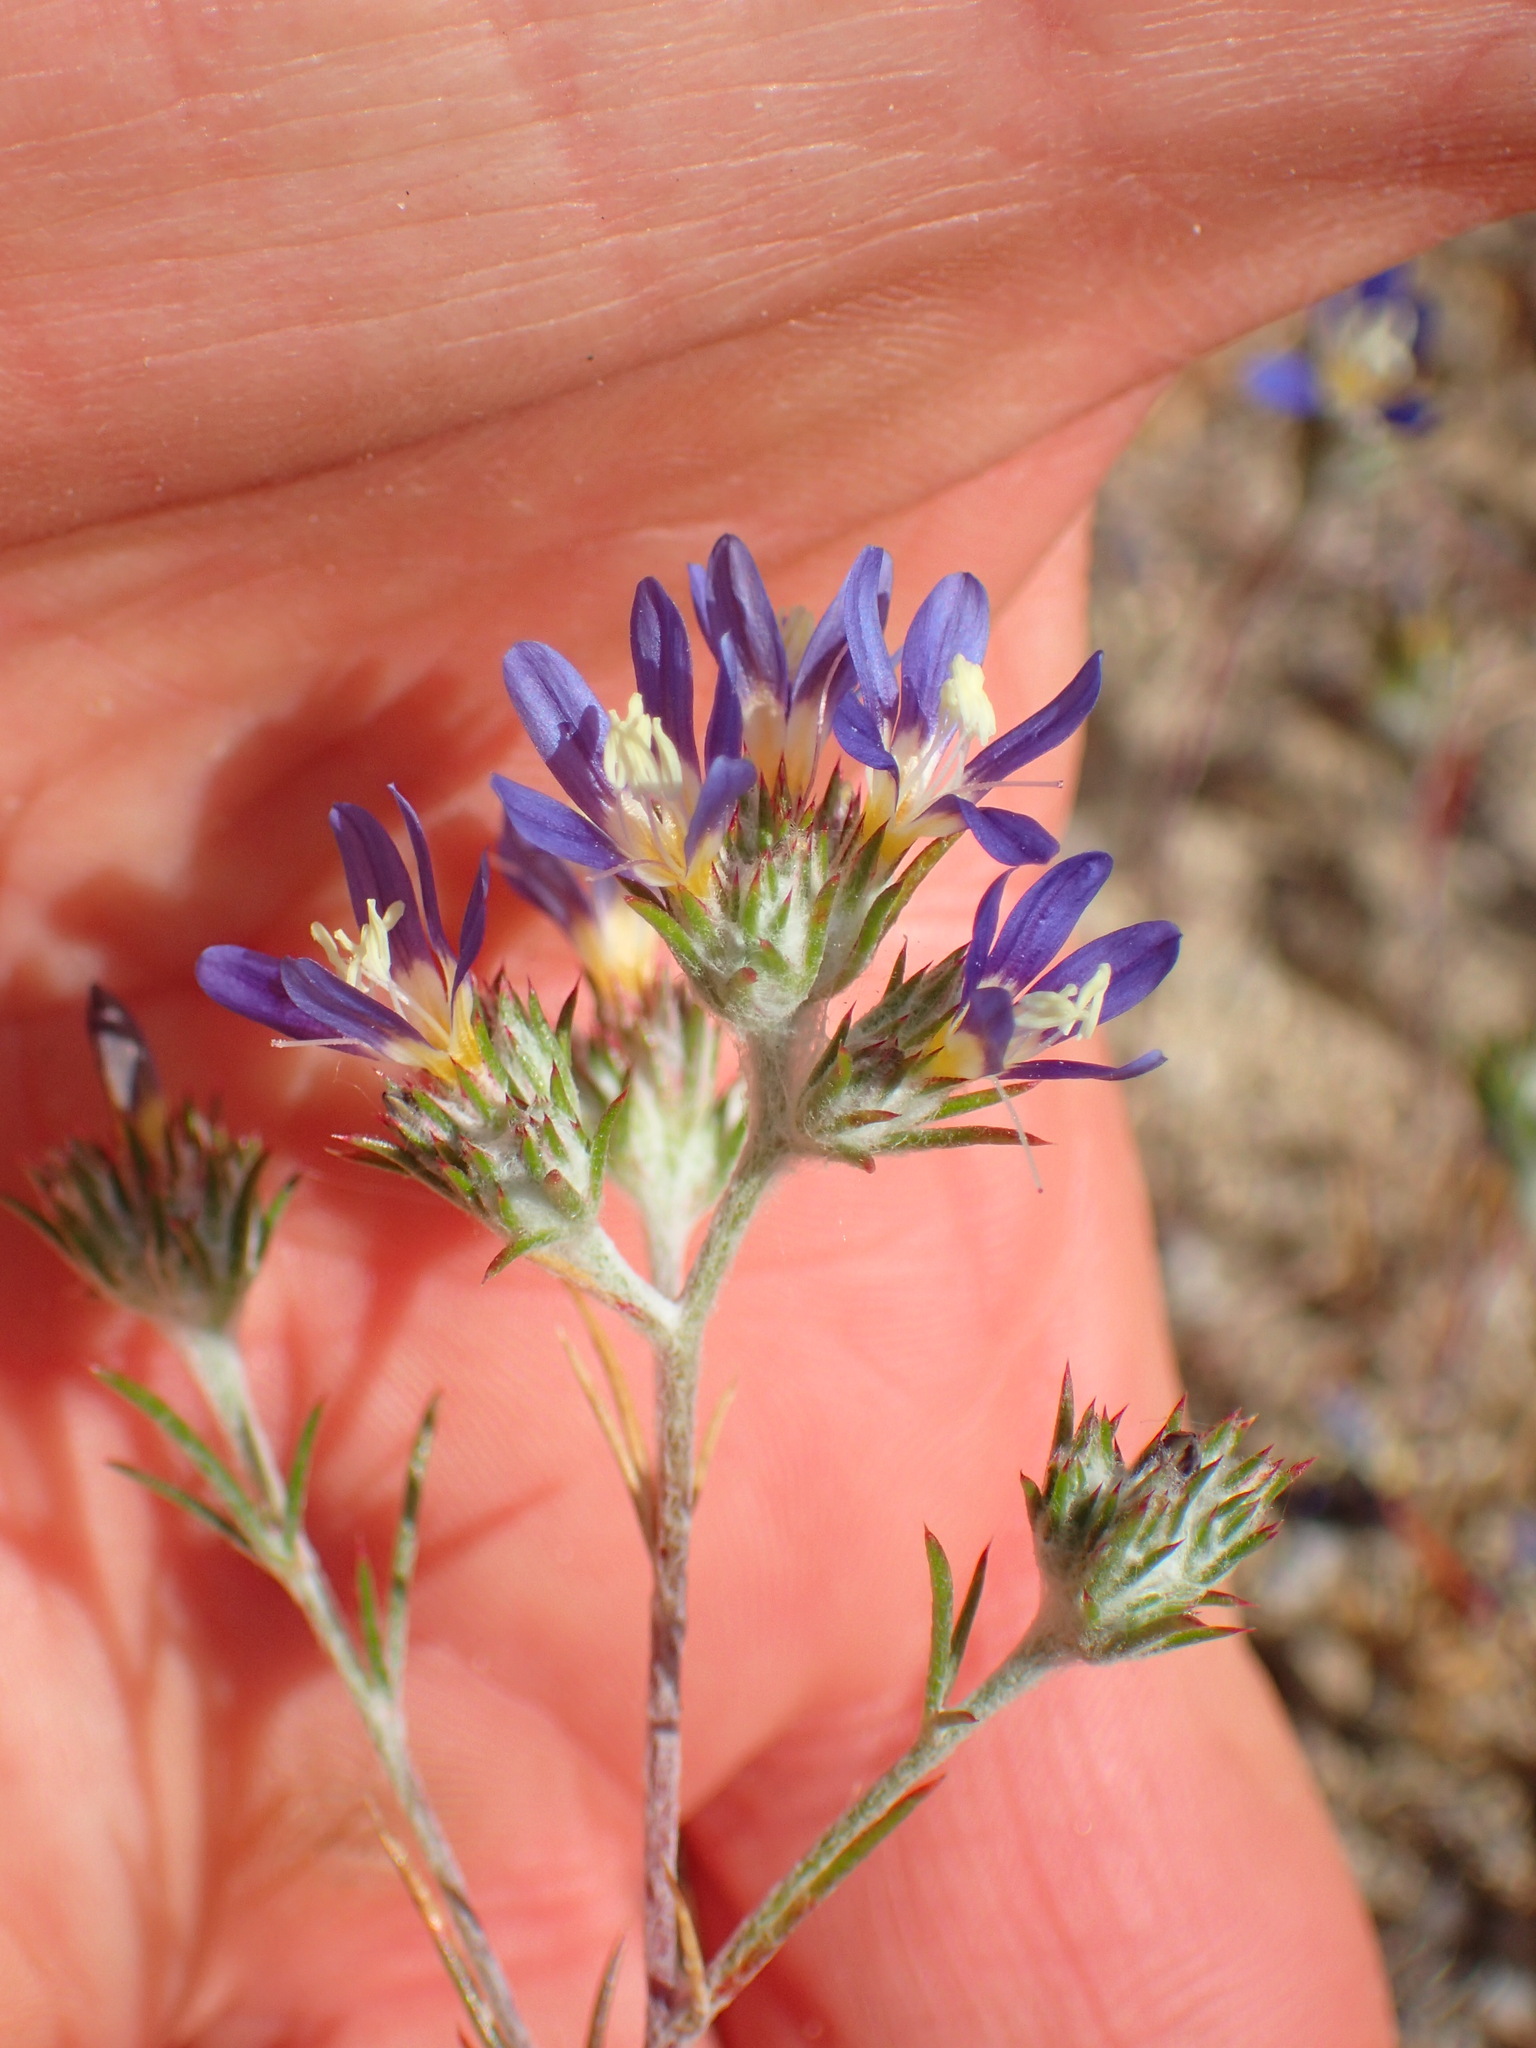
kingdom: Plantae
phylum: Tracheophyta
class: Magnoliopsida
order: Ericales
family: Polemoniaceae
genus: Eriastrum
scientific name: Eriastrum sapphirinum
